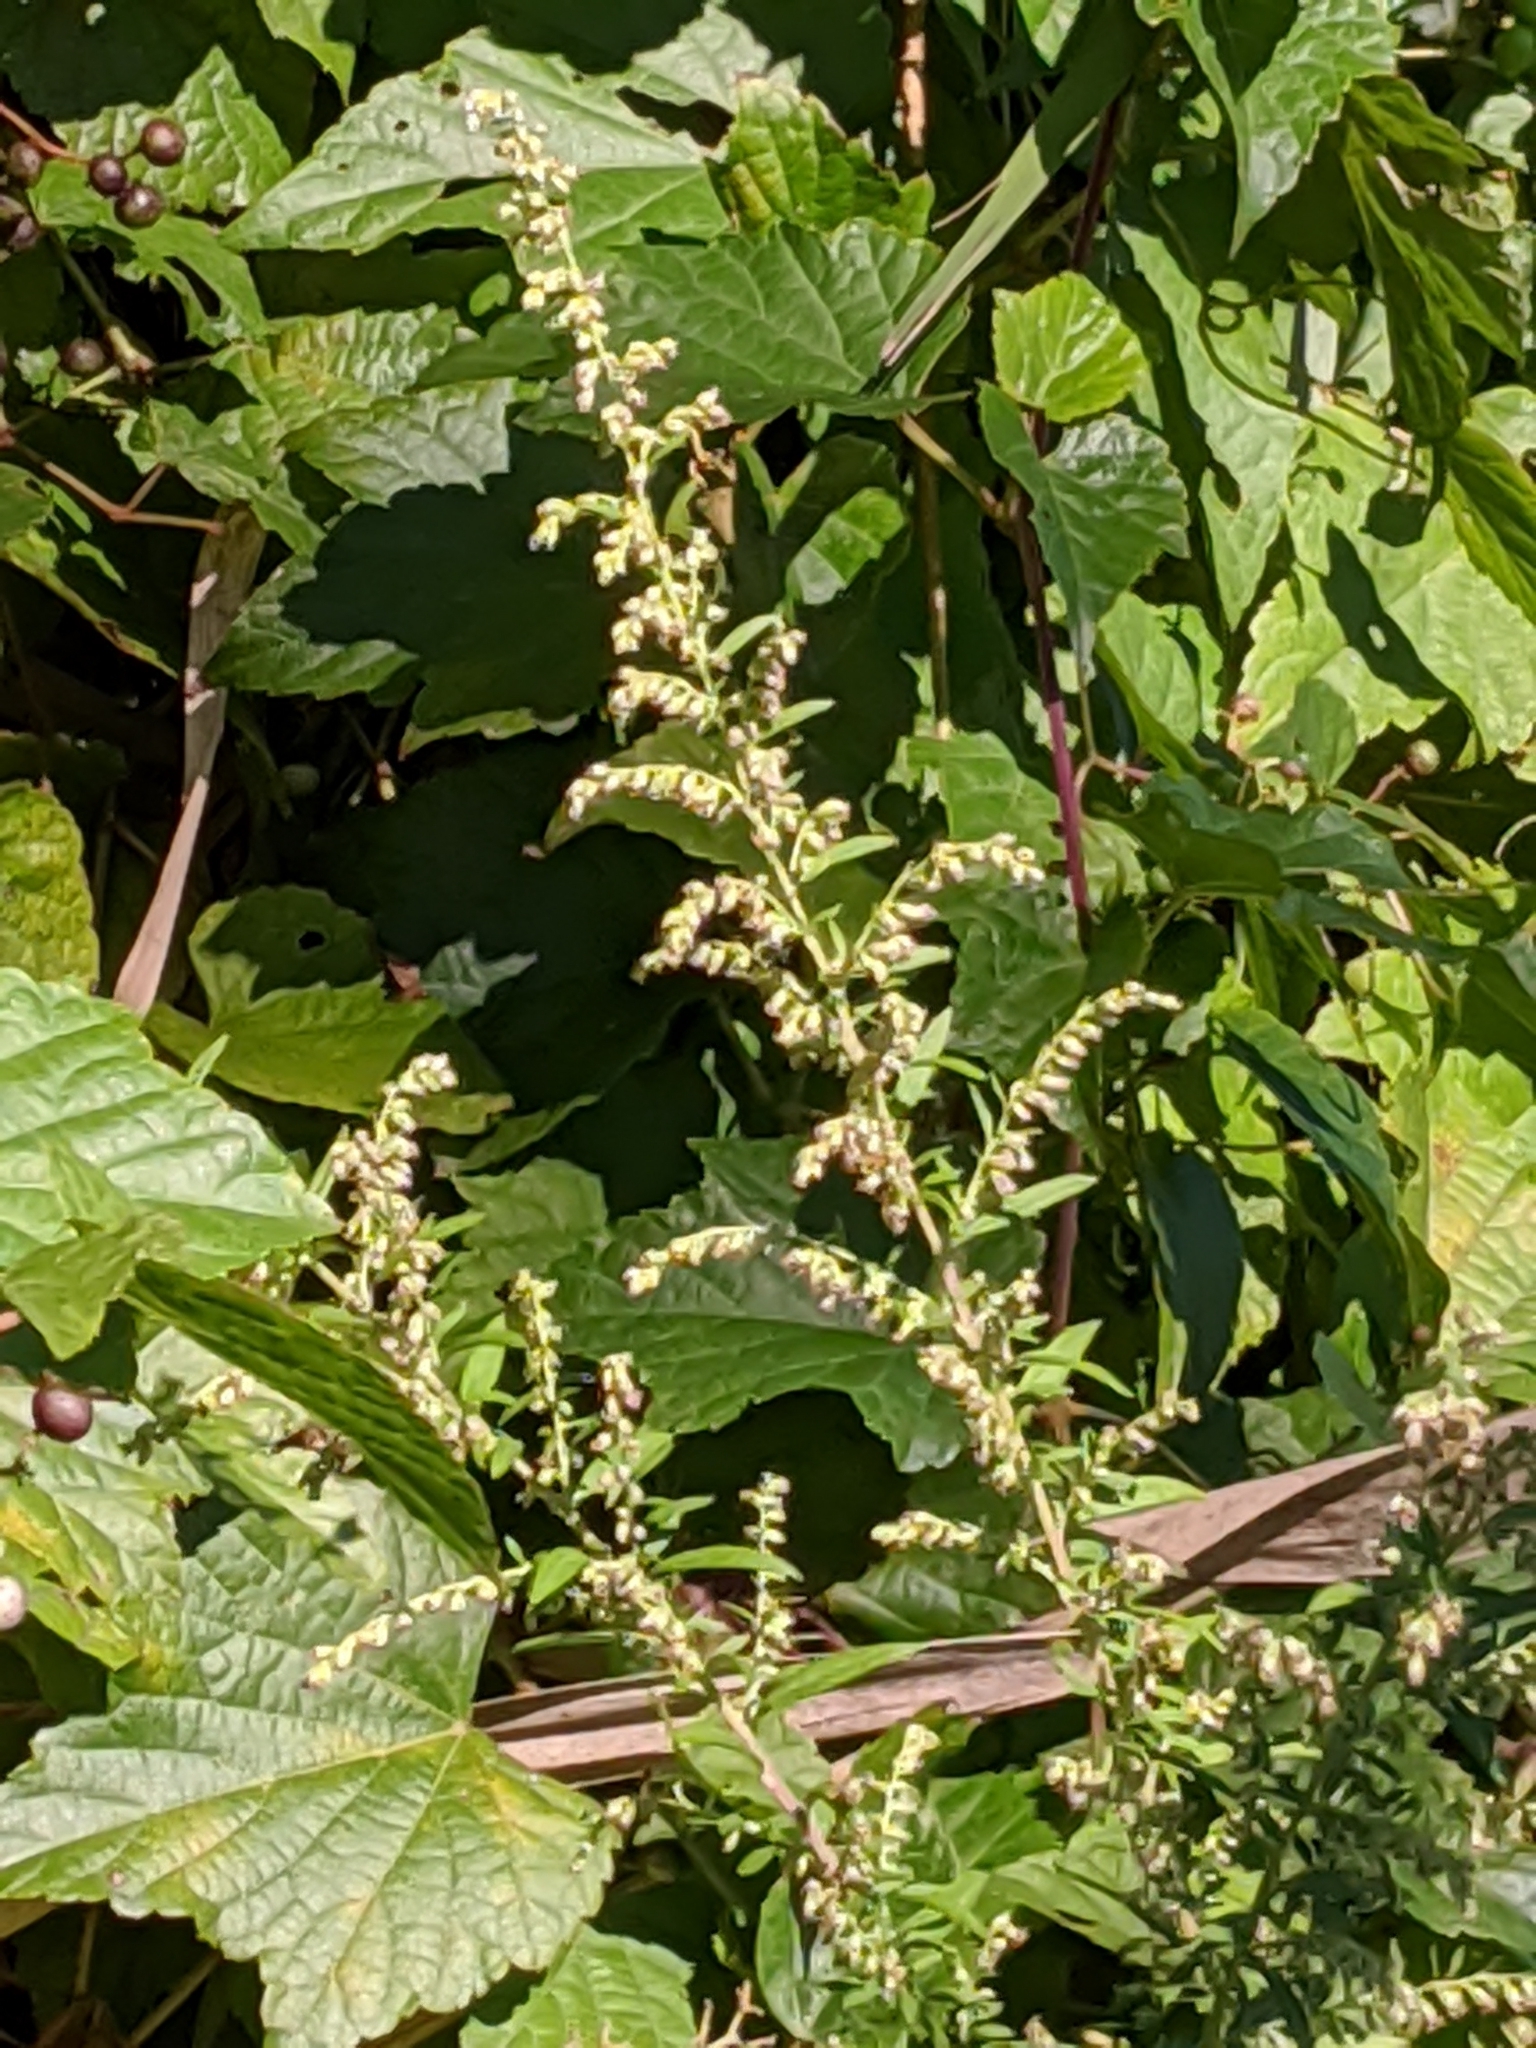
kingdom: Plantae
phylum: Tracheophyta
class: Magnoliopsida
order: Asterales
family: Asteraceae
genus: Artemisia
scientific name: Artemisia vulgaris
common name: Mugwort
